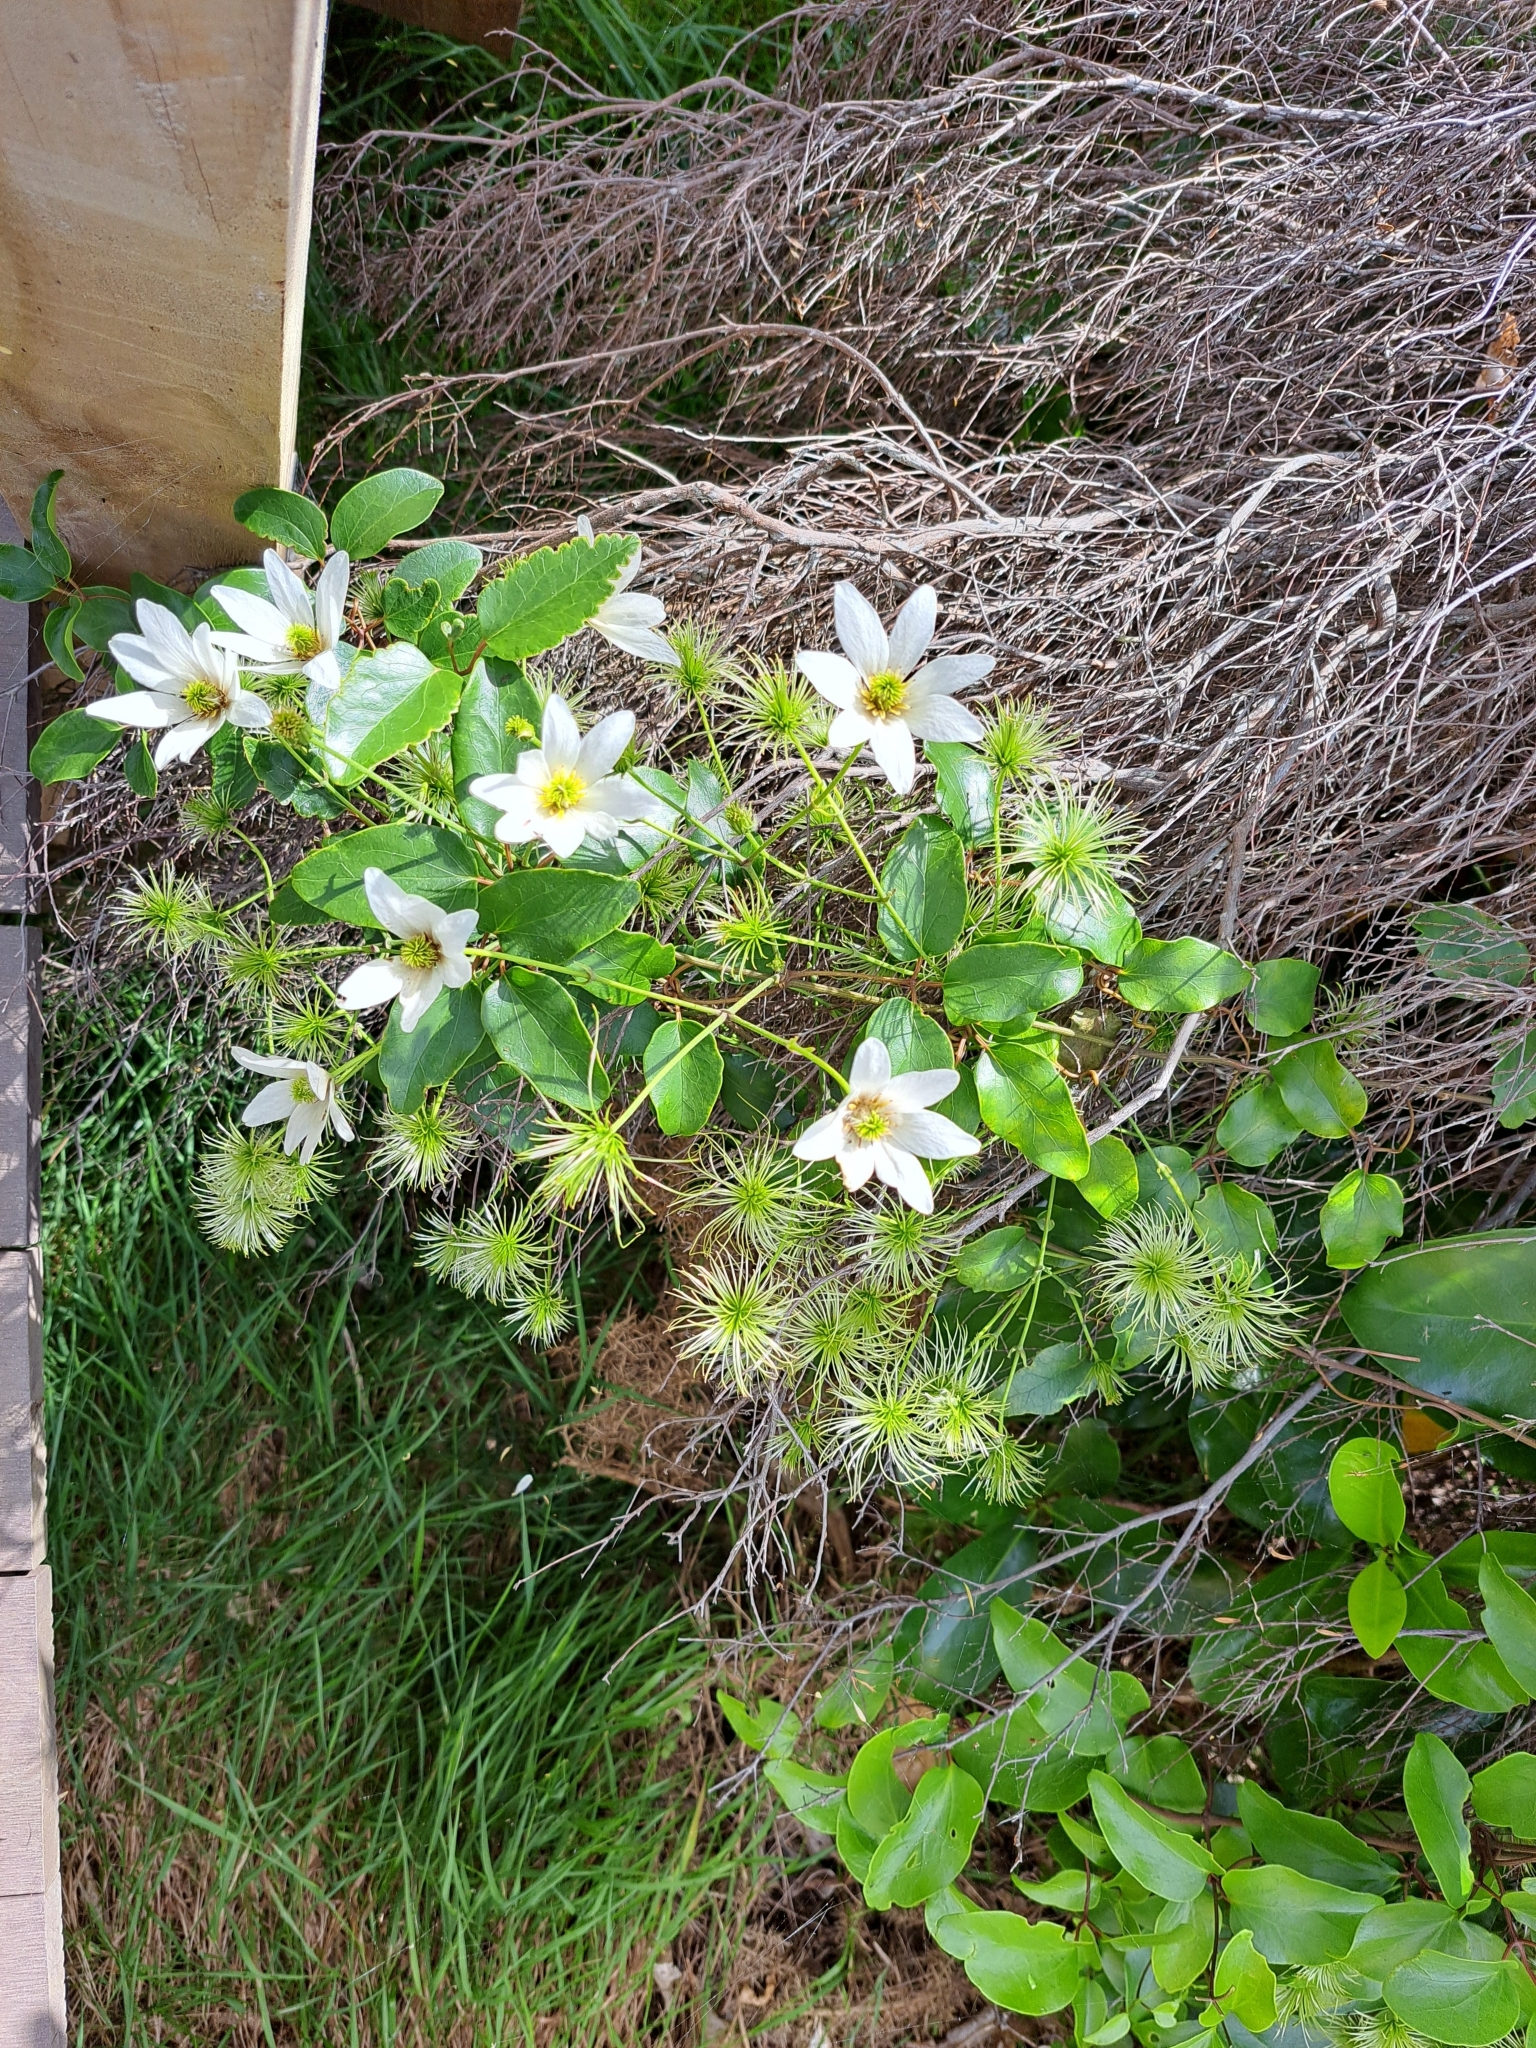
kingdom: Plantae
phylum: Tracheophyta
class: Magnoliopsida
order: Ranunculales
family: Ranunculaceae
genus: Clematis
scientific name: Clematis paniculata
